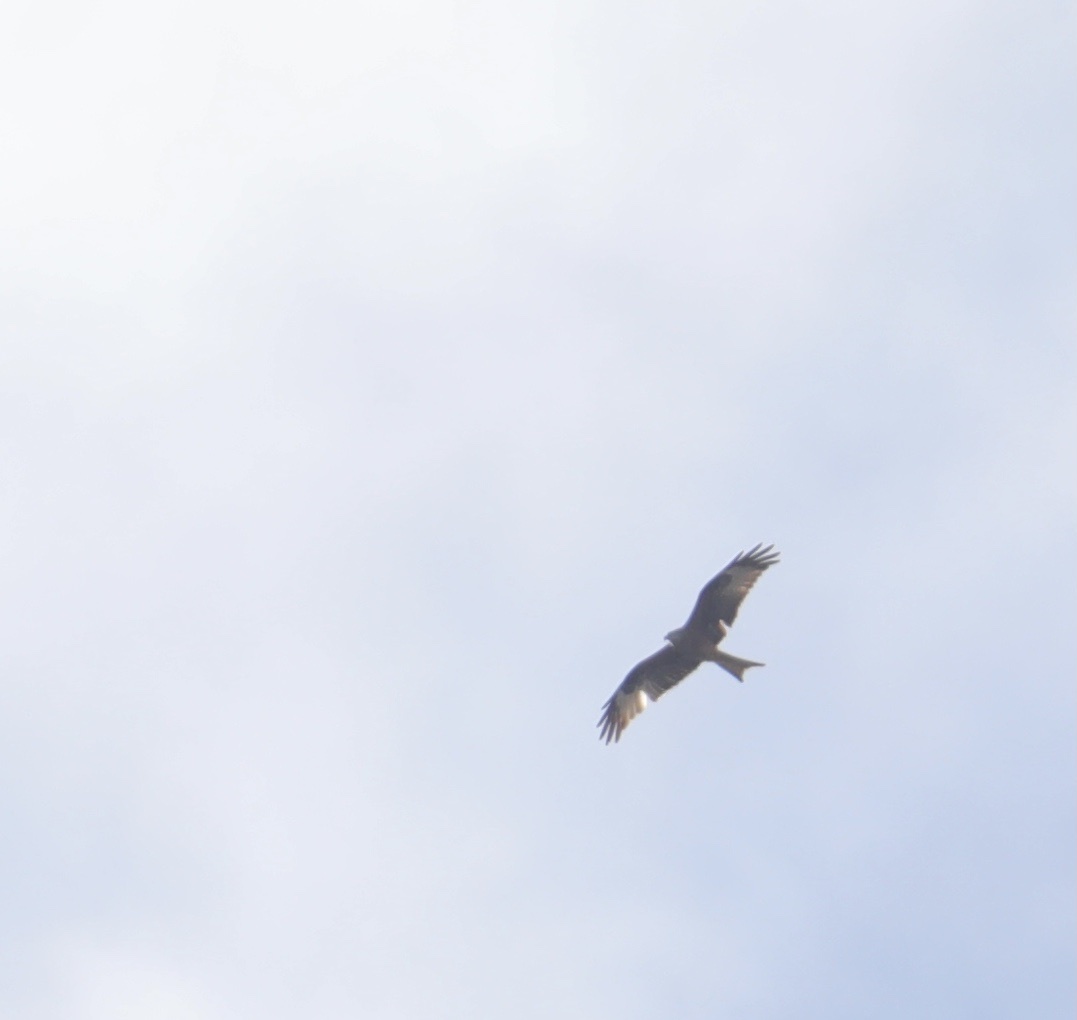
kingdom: Animalia
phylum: Chordata
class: Aves
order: Accipitriformes
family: Accipitridae
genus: Milvus
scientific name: Milvus milvus
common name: Red kite
